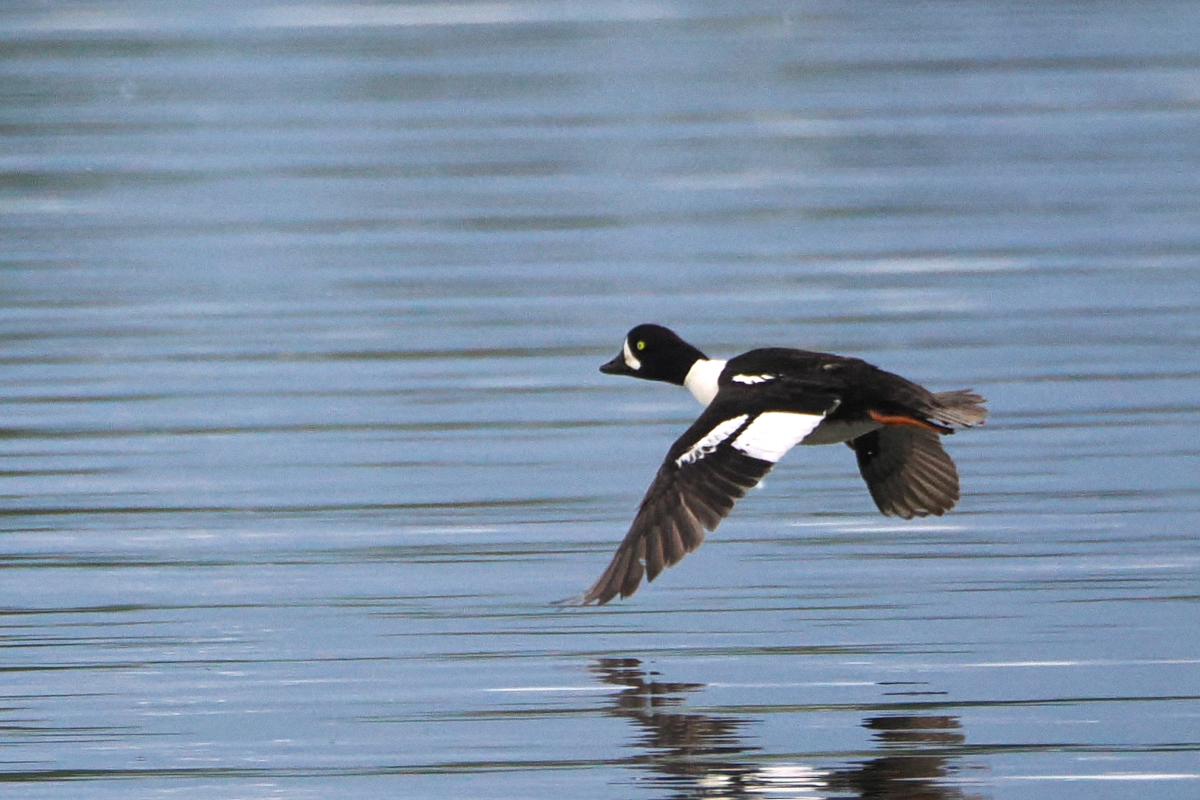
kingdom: Animalia
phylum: Chordata
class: Aves
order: Anseriformes
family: Anatidae
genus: Bucephala
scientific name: Bucephala islandica
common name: Barrow's goldeneye
